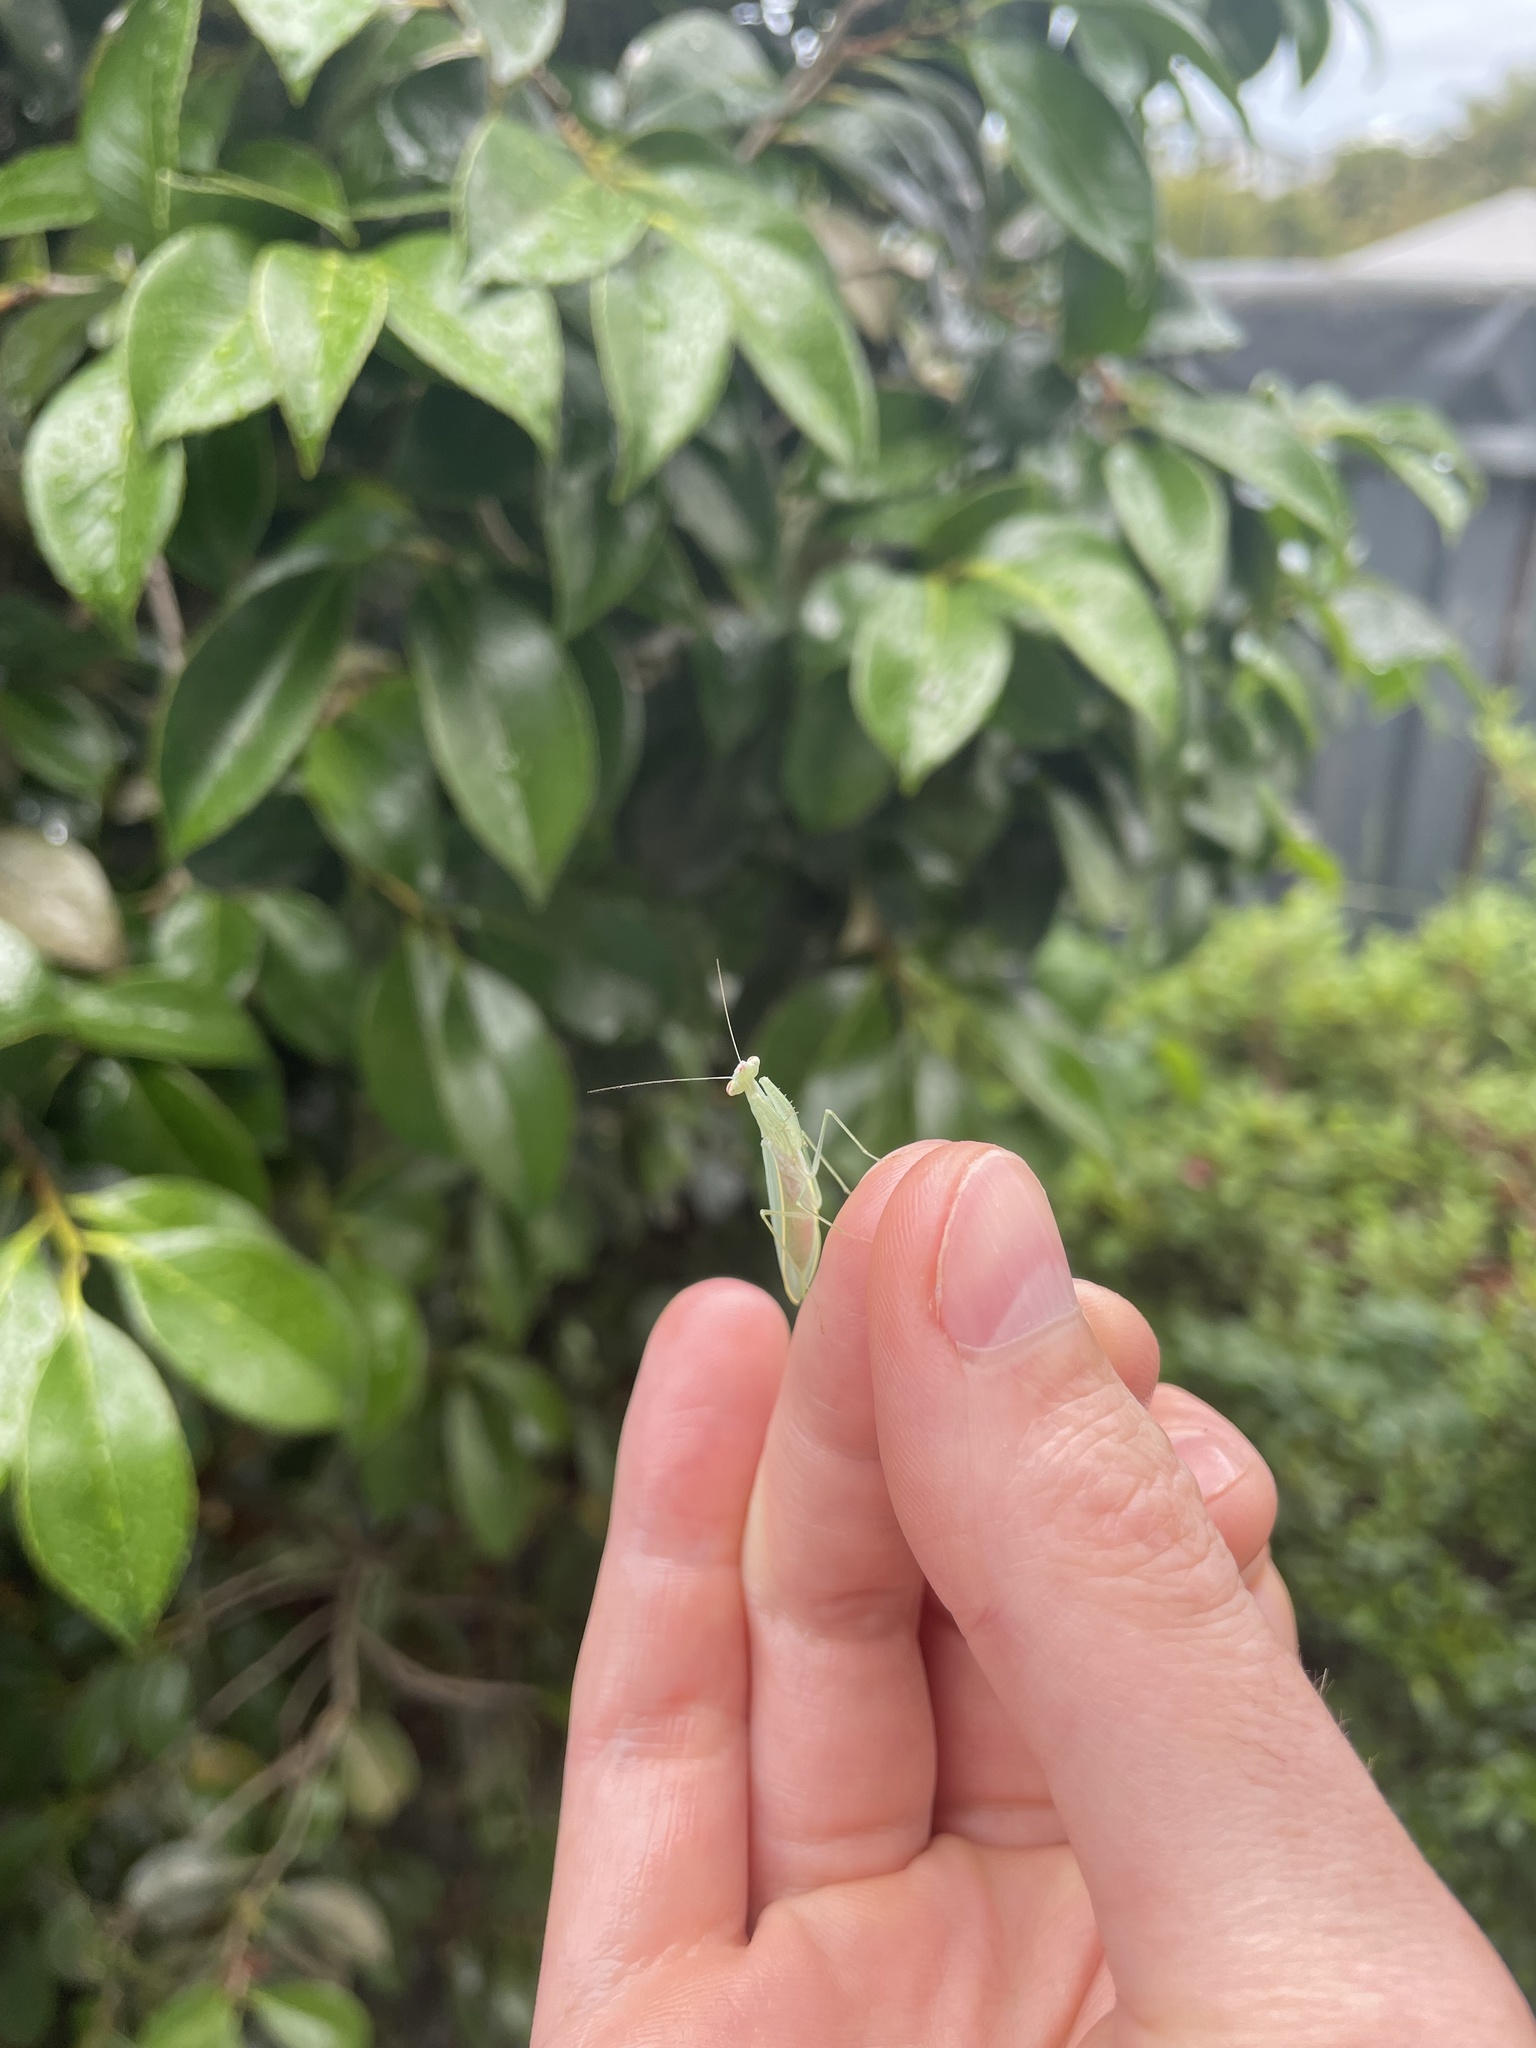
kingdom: Animalia
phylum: Arthropoda
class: Insecta
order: Mantodea
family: Nanomantidae
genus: Kongobatha
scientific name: Kongobatha diademata
